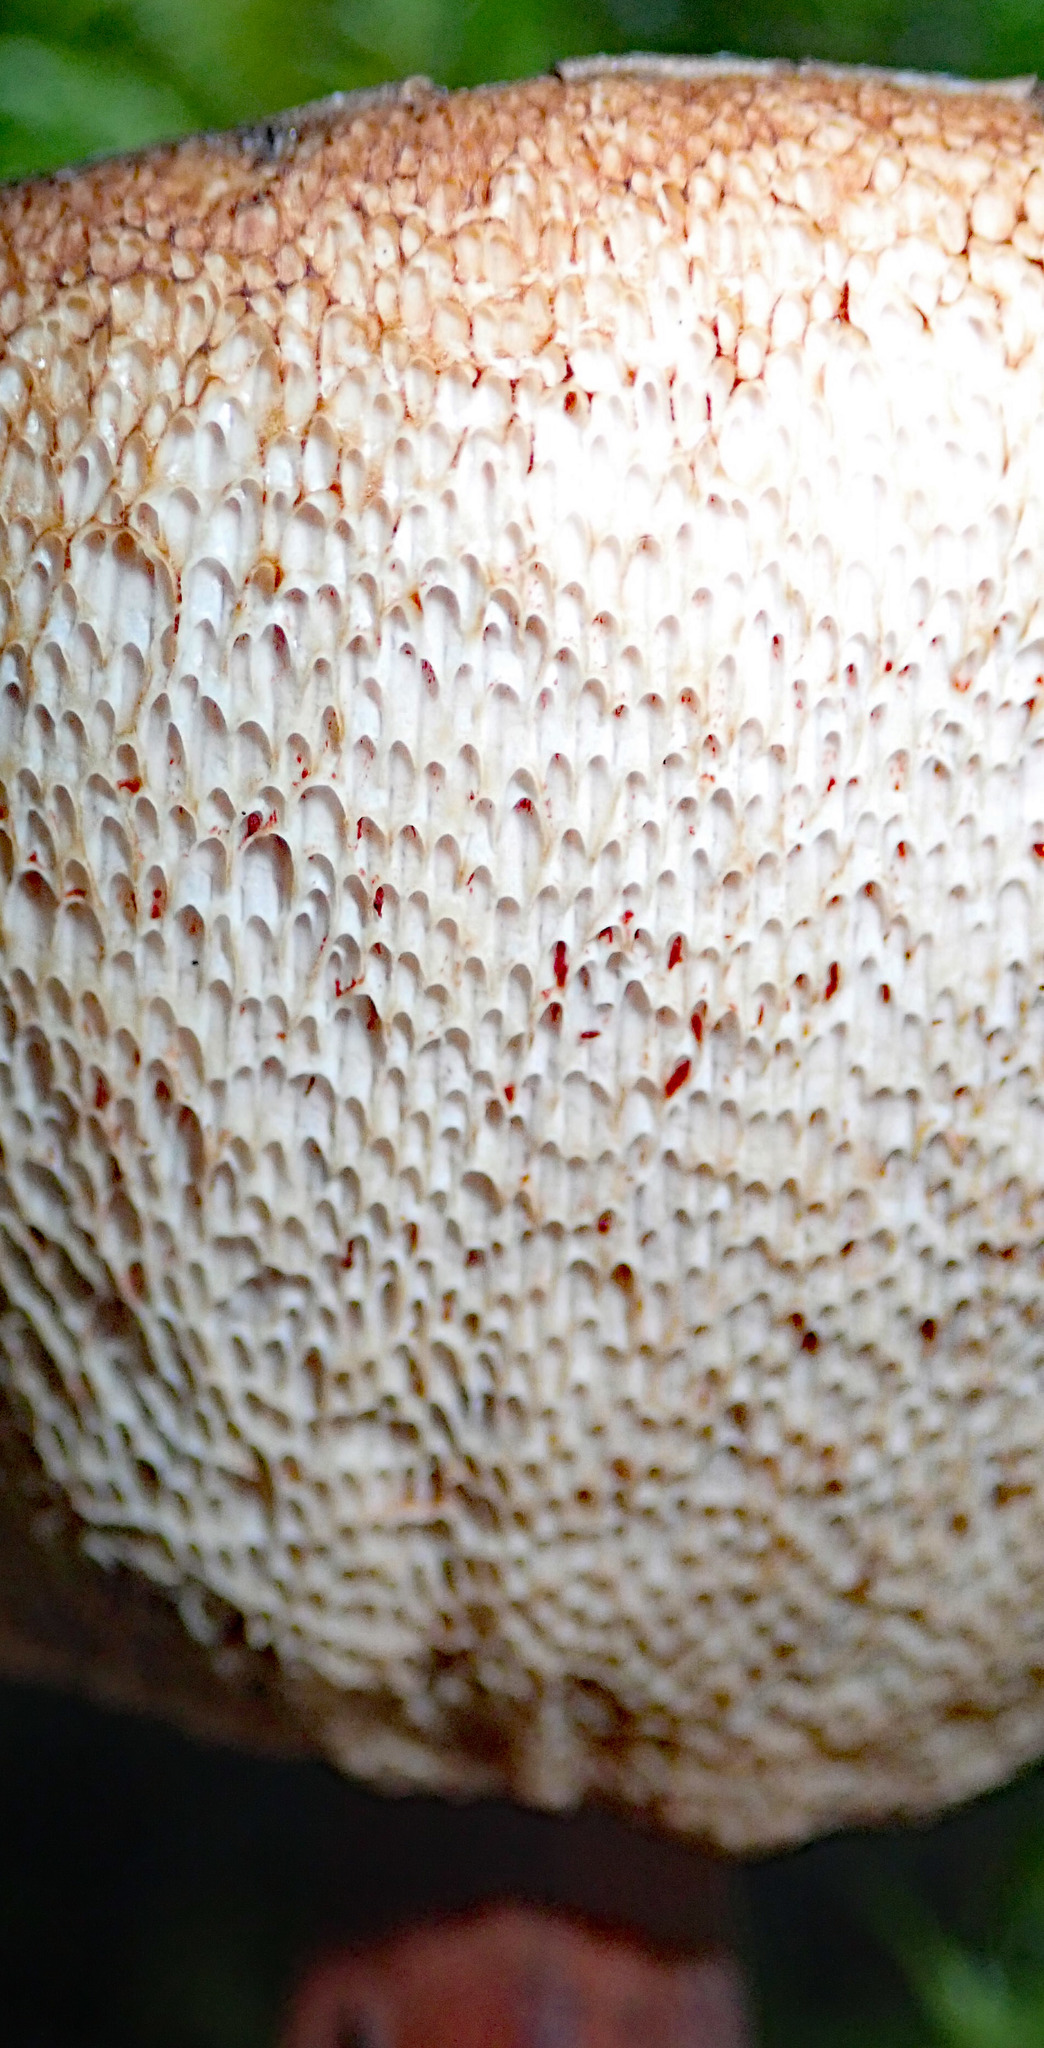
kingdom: Fungi
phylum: Basidiomycota
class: Agaricomycetes
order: Boletales
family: Boletaceae
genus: Porphyrellus
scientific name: Porphyrellus formosus
